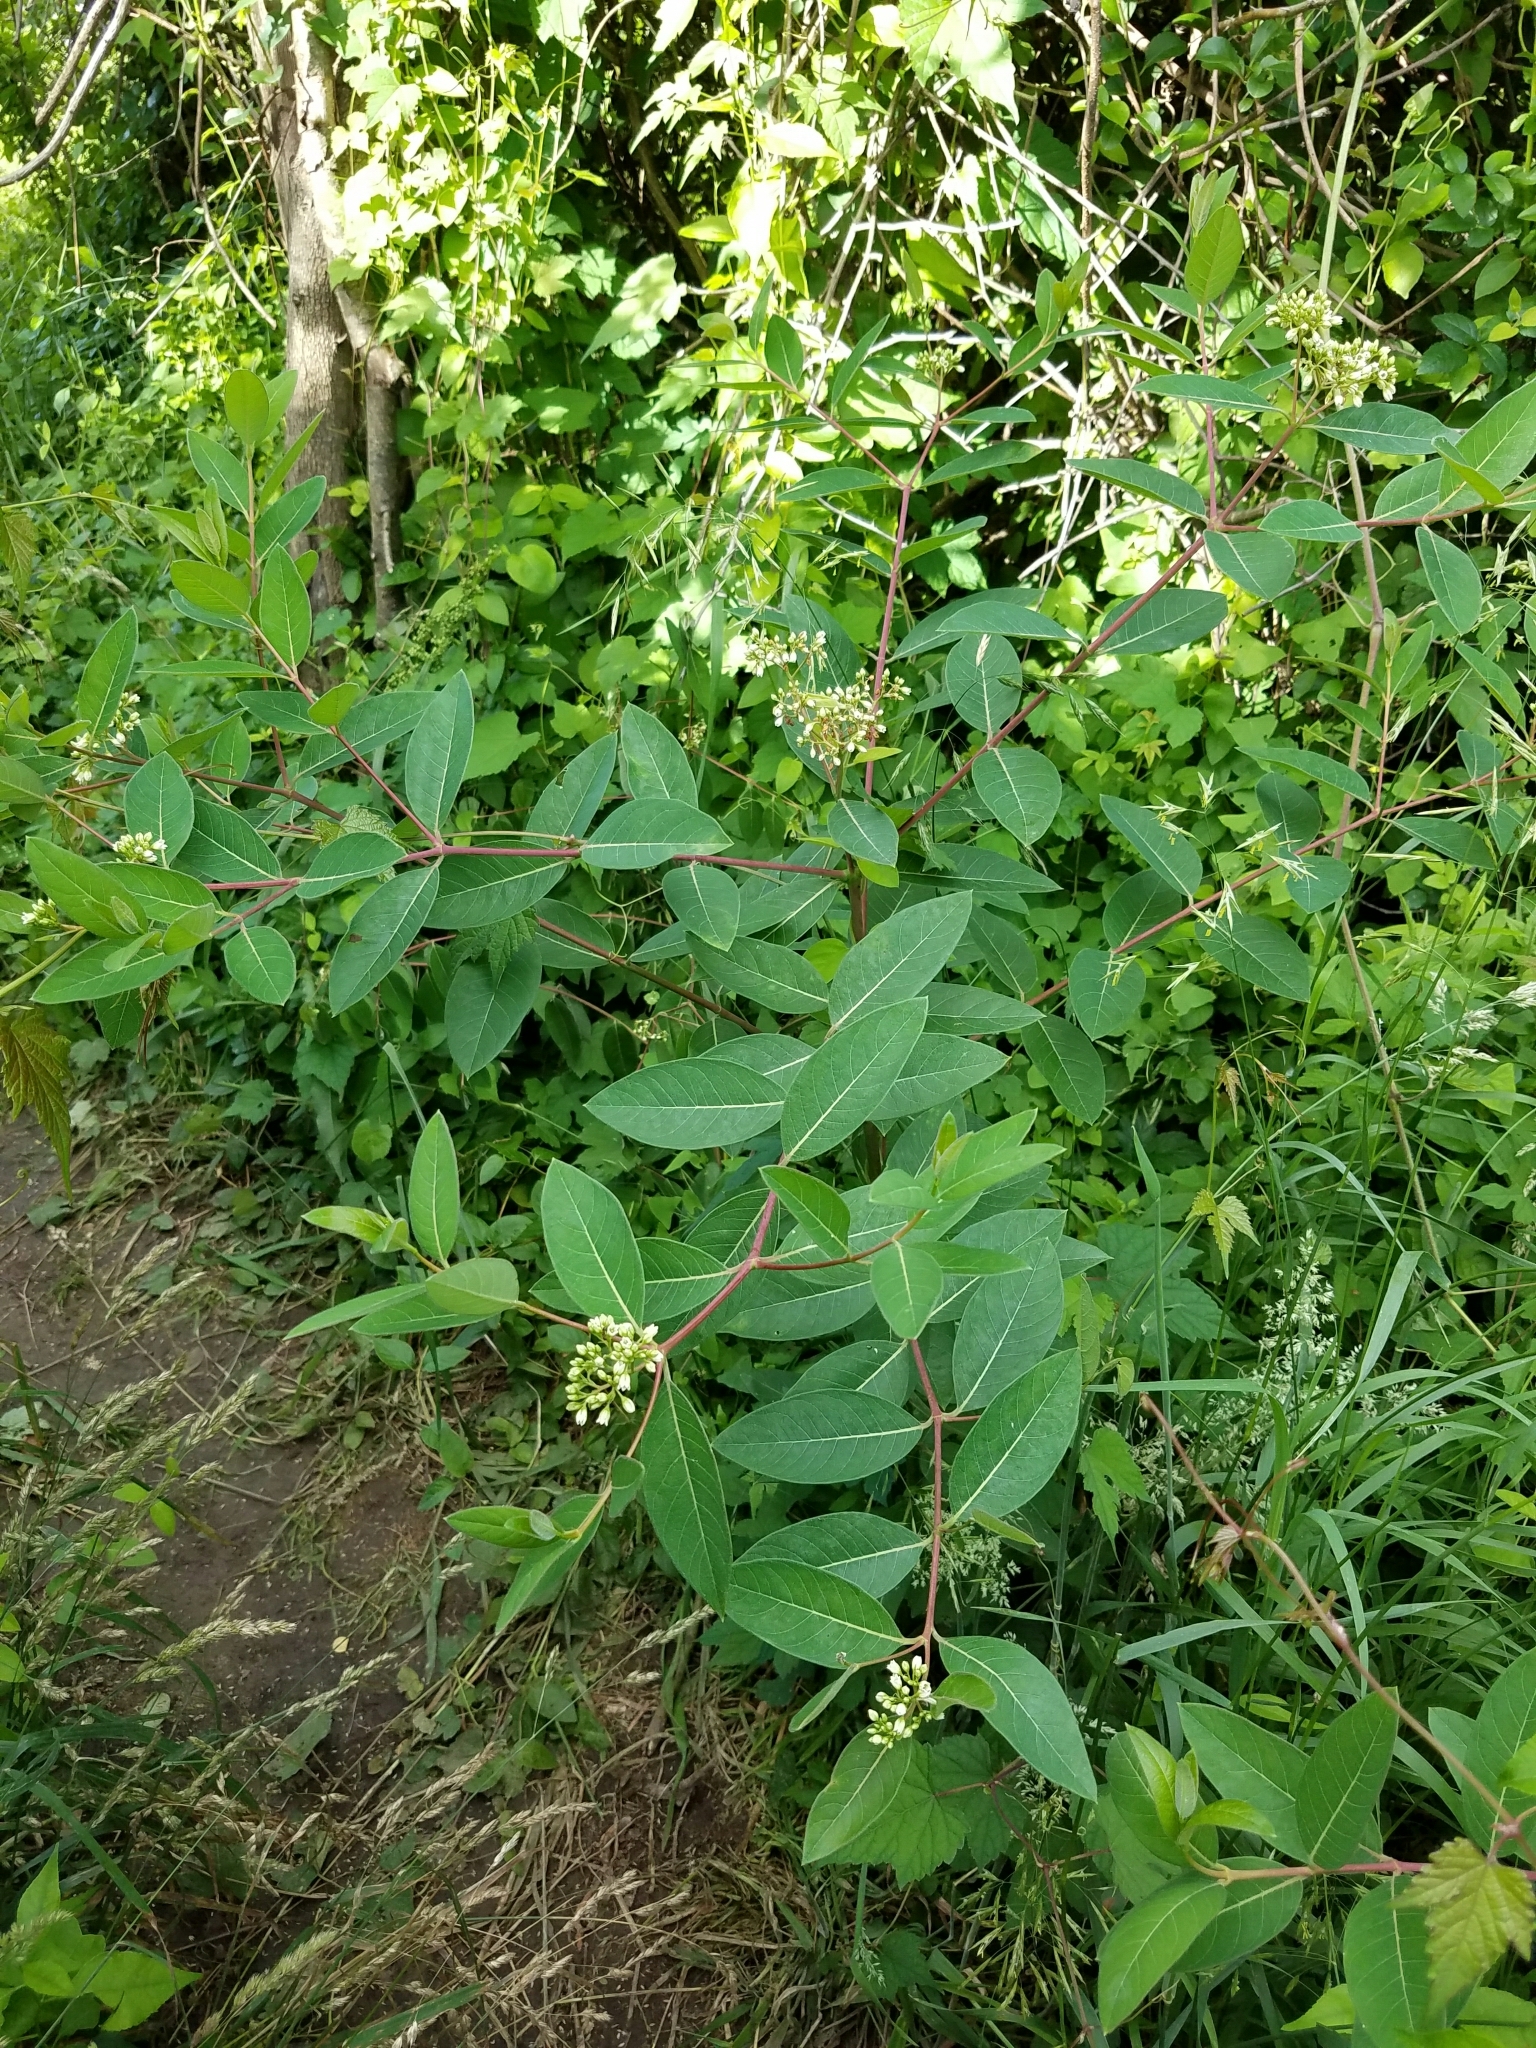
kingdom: Plantae
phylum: Tracheophyta
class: Magnoliopsida
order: Gentianales
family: Apocynaceae
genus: Apocynum
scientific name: Apocynum cannabinum
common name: Hemp dogbane
